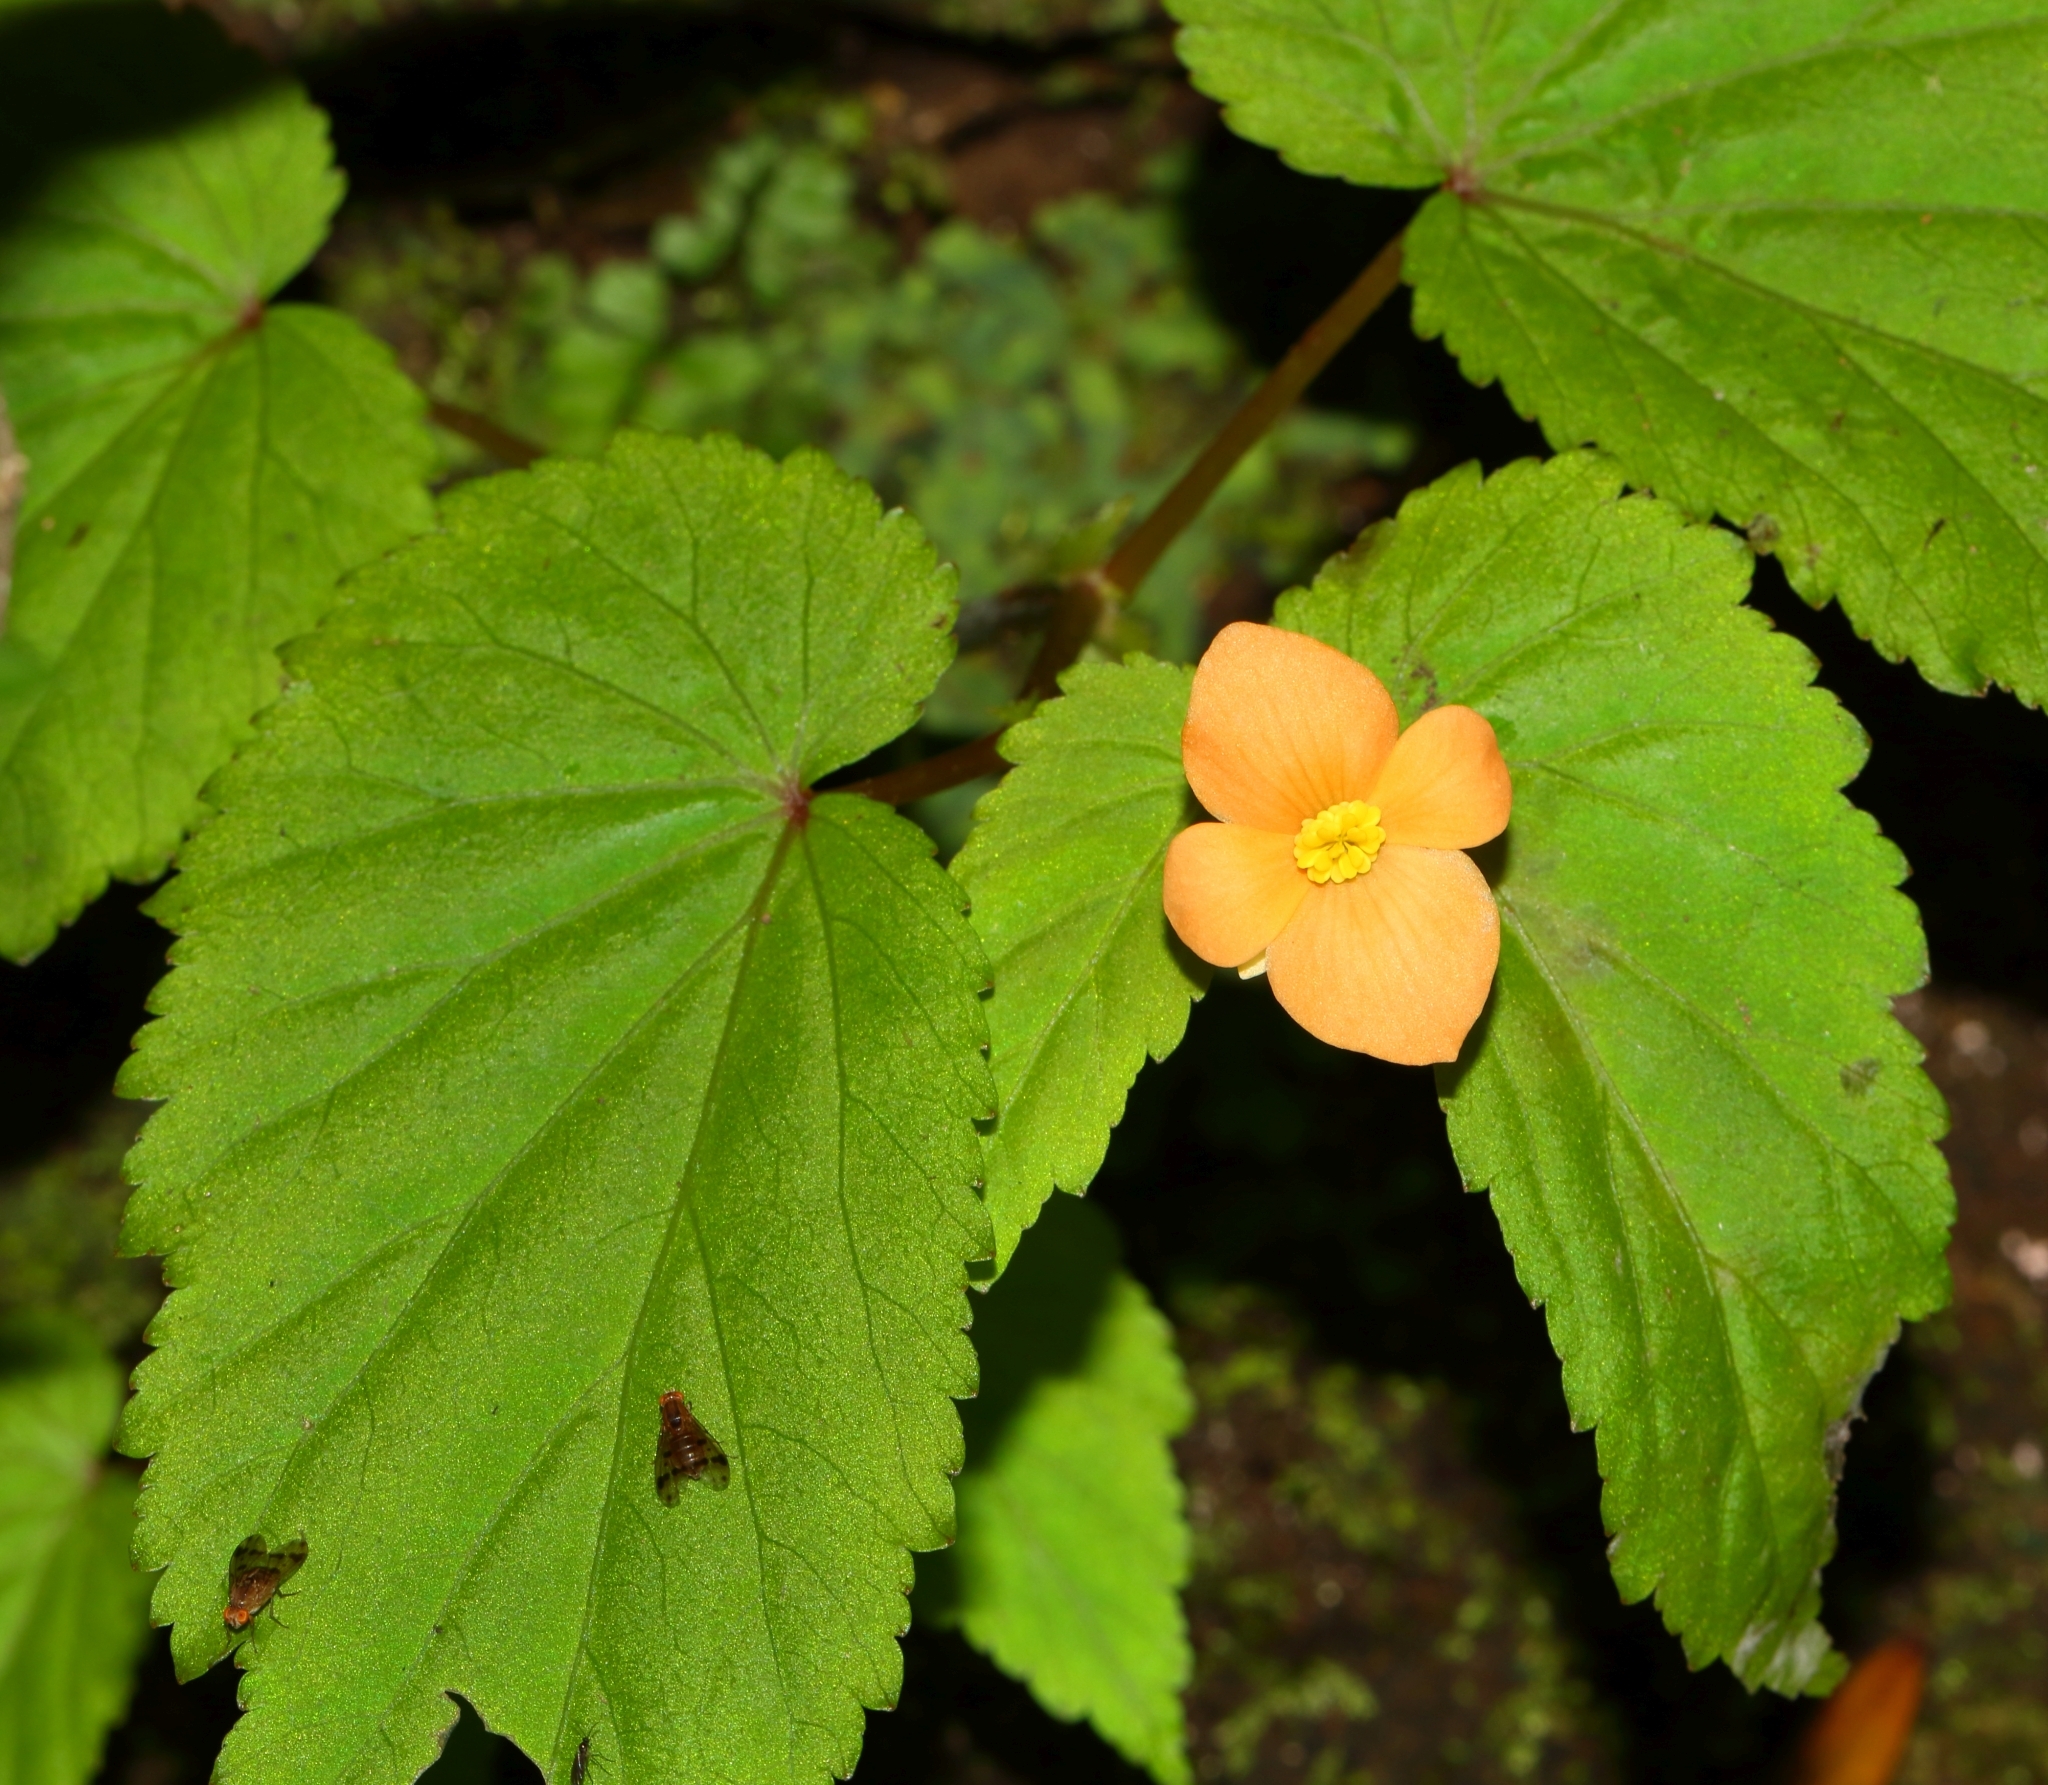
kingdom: Plantae
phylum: Tracheophyta
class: Magnoliopsida
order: Cucurbitales
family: Begoniaceae
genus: Begonia
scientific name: Begonia sutherlandii
